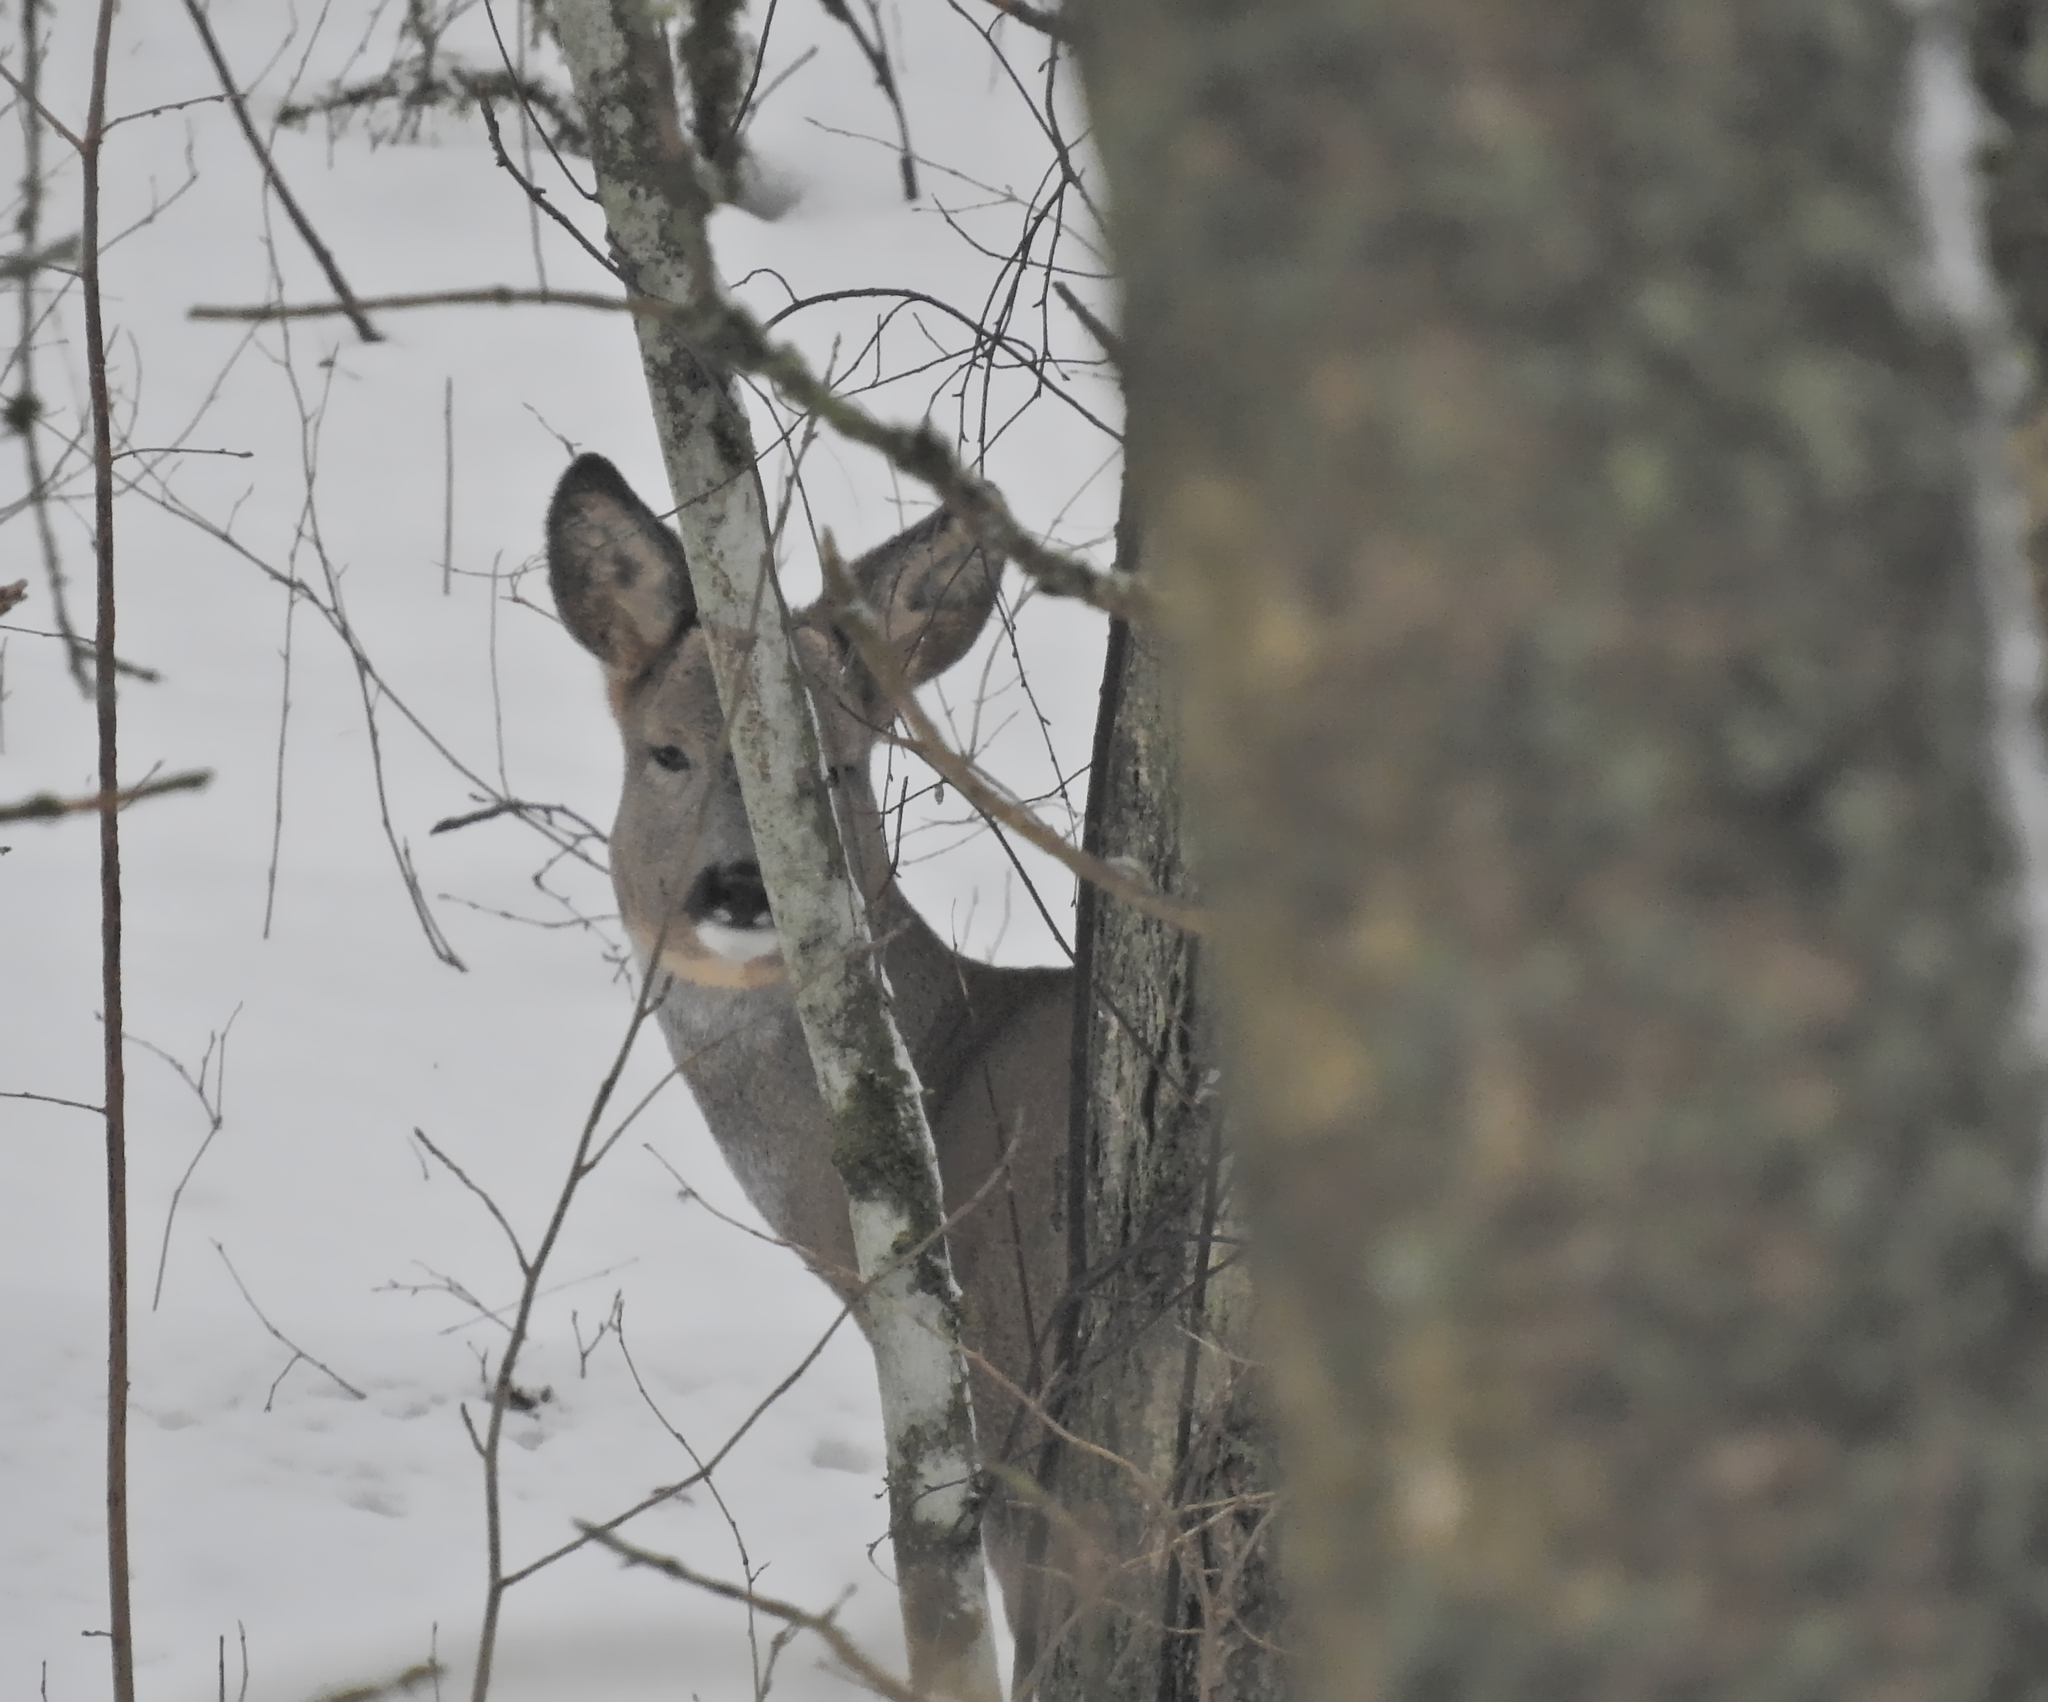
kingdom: Animalia
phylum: Chordata
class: Mammalia
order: Artiodactyla
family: Cervidae
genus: Capreolus
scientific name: Capreolus capreolus
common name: Western roe deer
